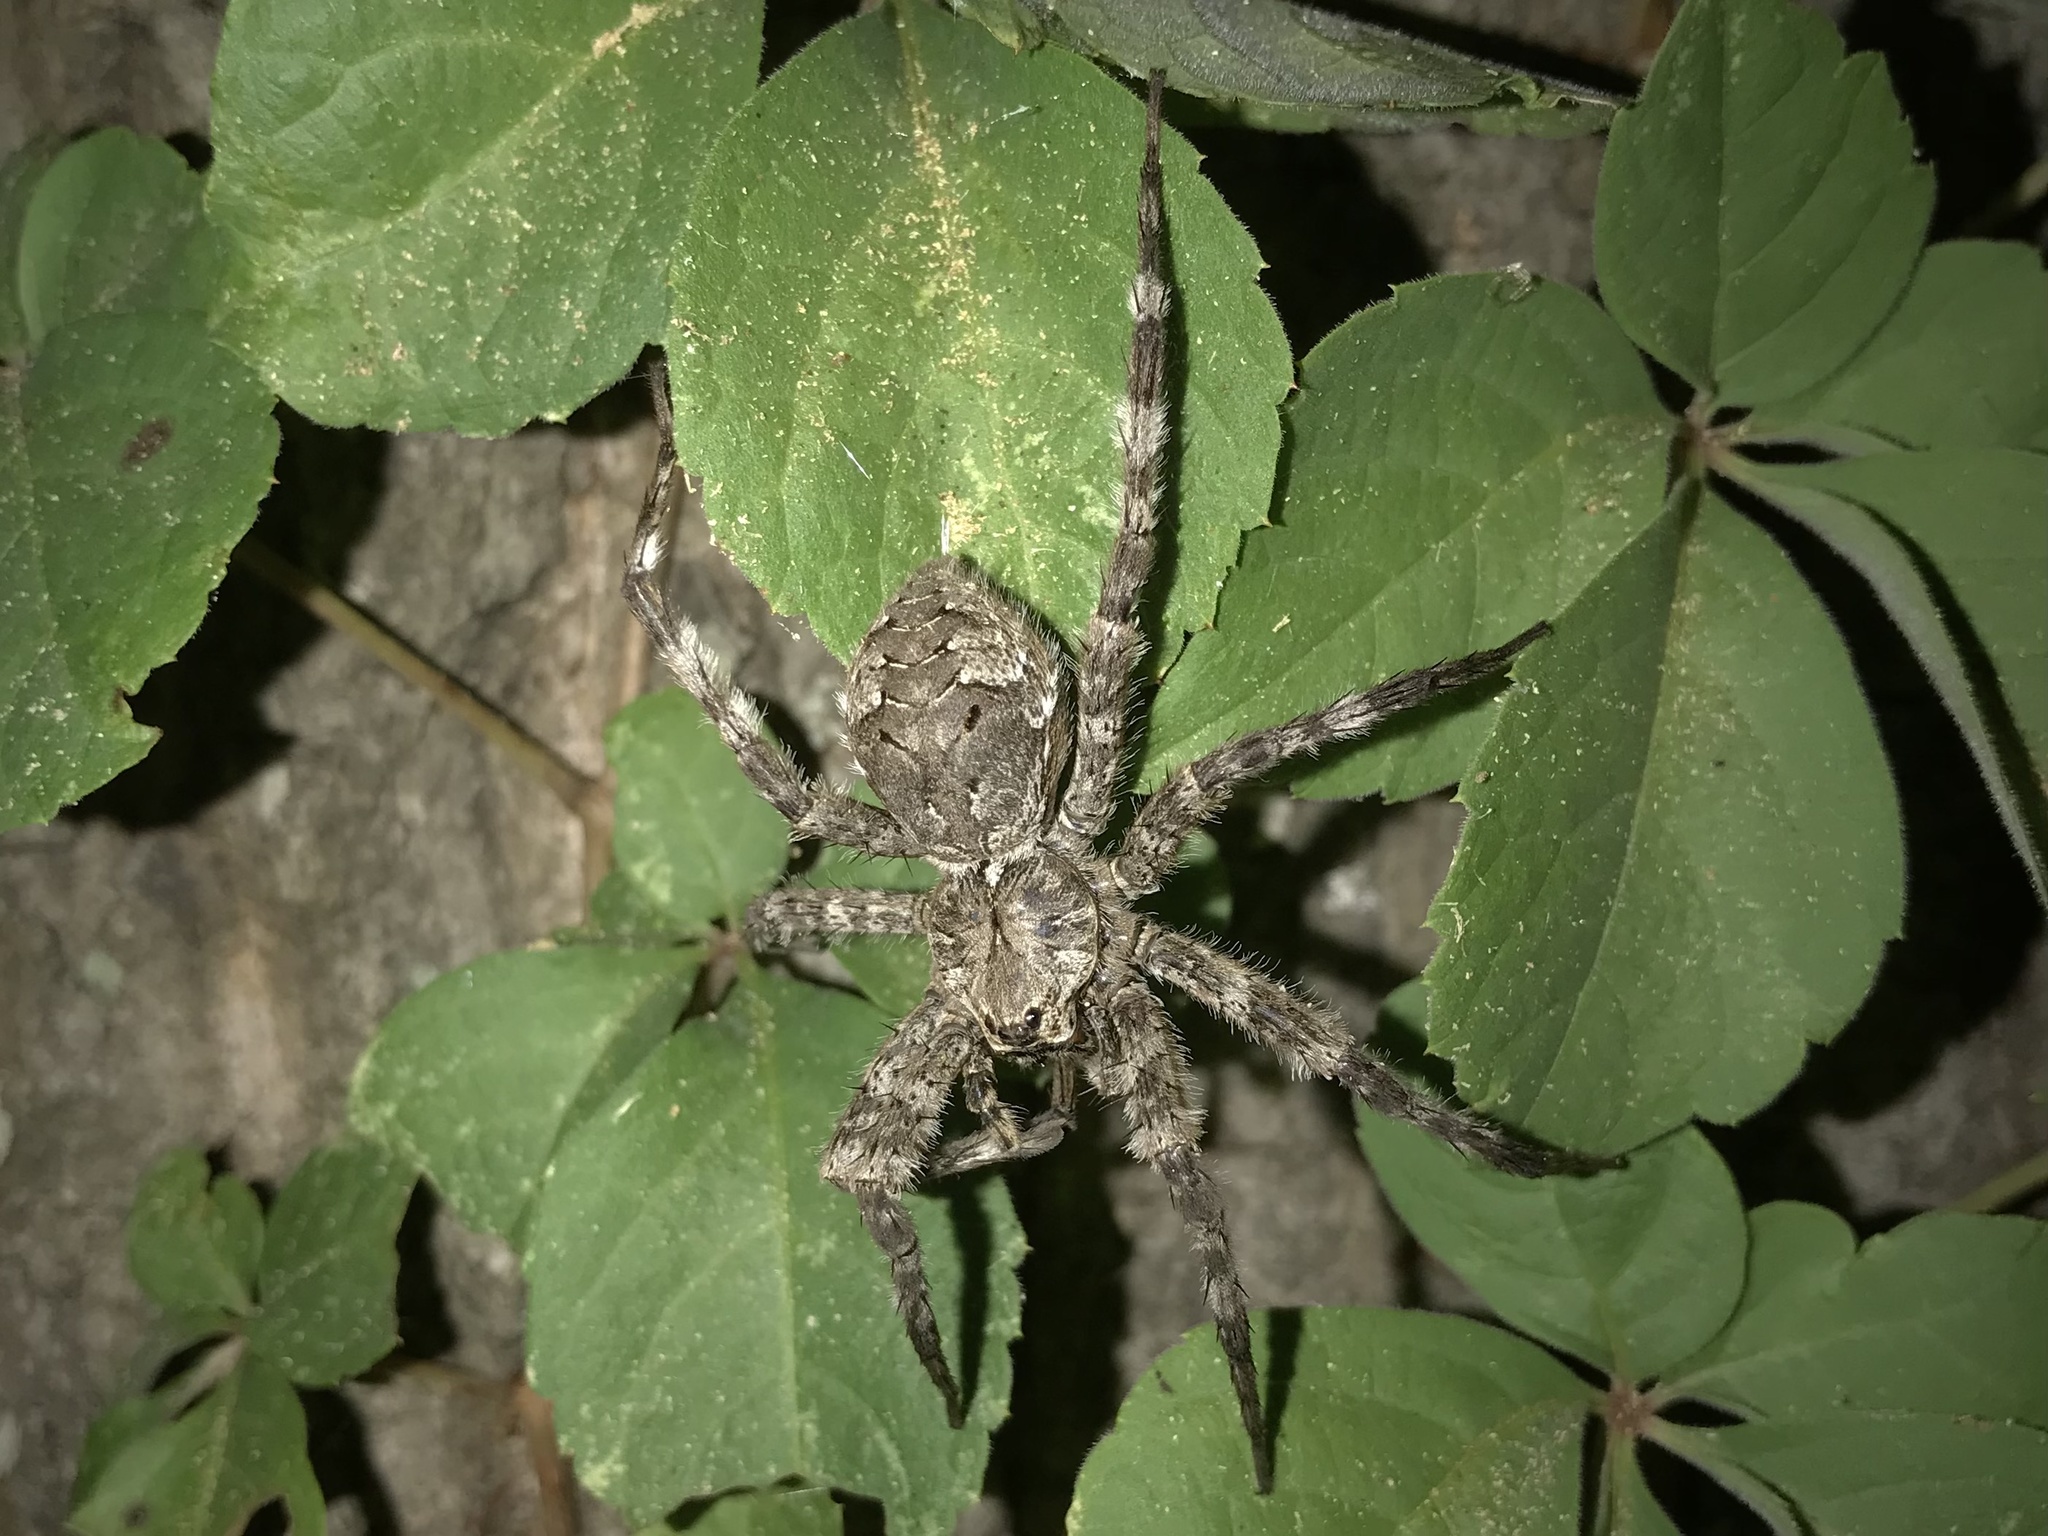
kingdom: Animalia
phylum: Arthropoda
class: Arachnida
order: Araneae
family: Pisauridae
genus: Dolomedes
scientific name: Dolomedes albineus
